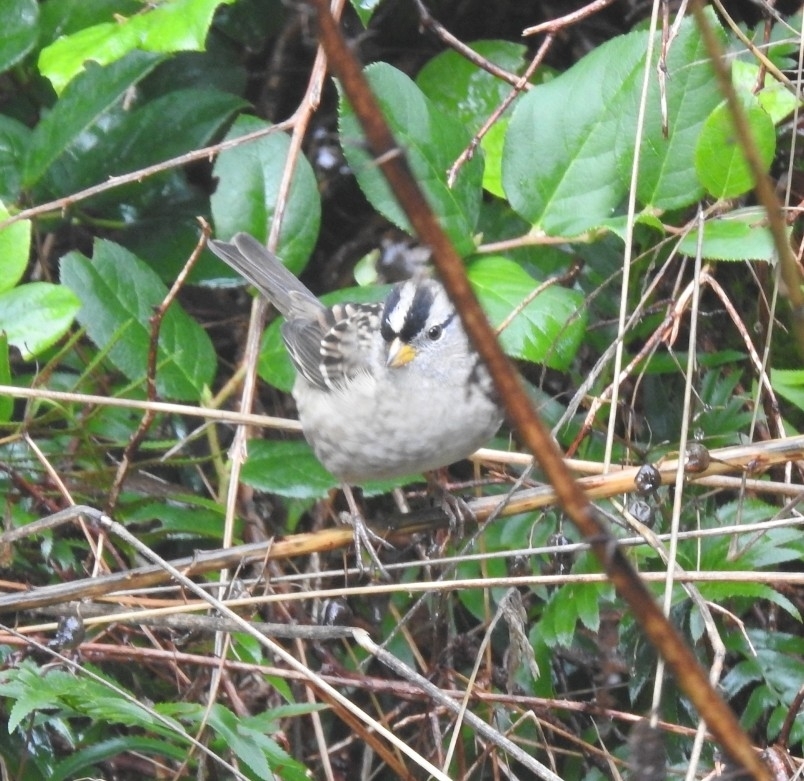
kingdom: Animalia
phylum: Chordata
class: Aves
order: Passeriformes
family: Passerellidae
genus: Zonotrichia
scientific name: Zonotrichia leucophrys
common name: White-crowned sparrow
